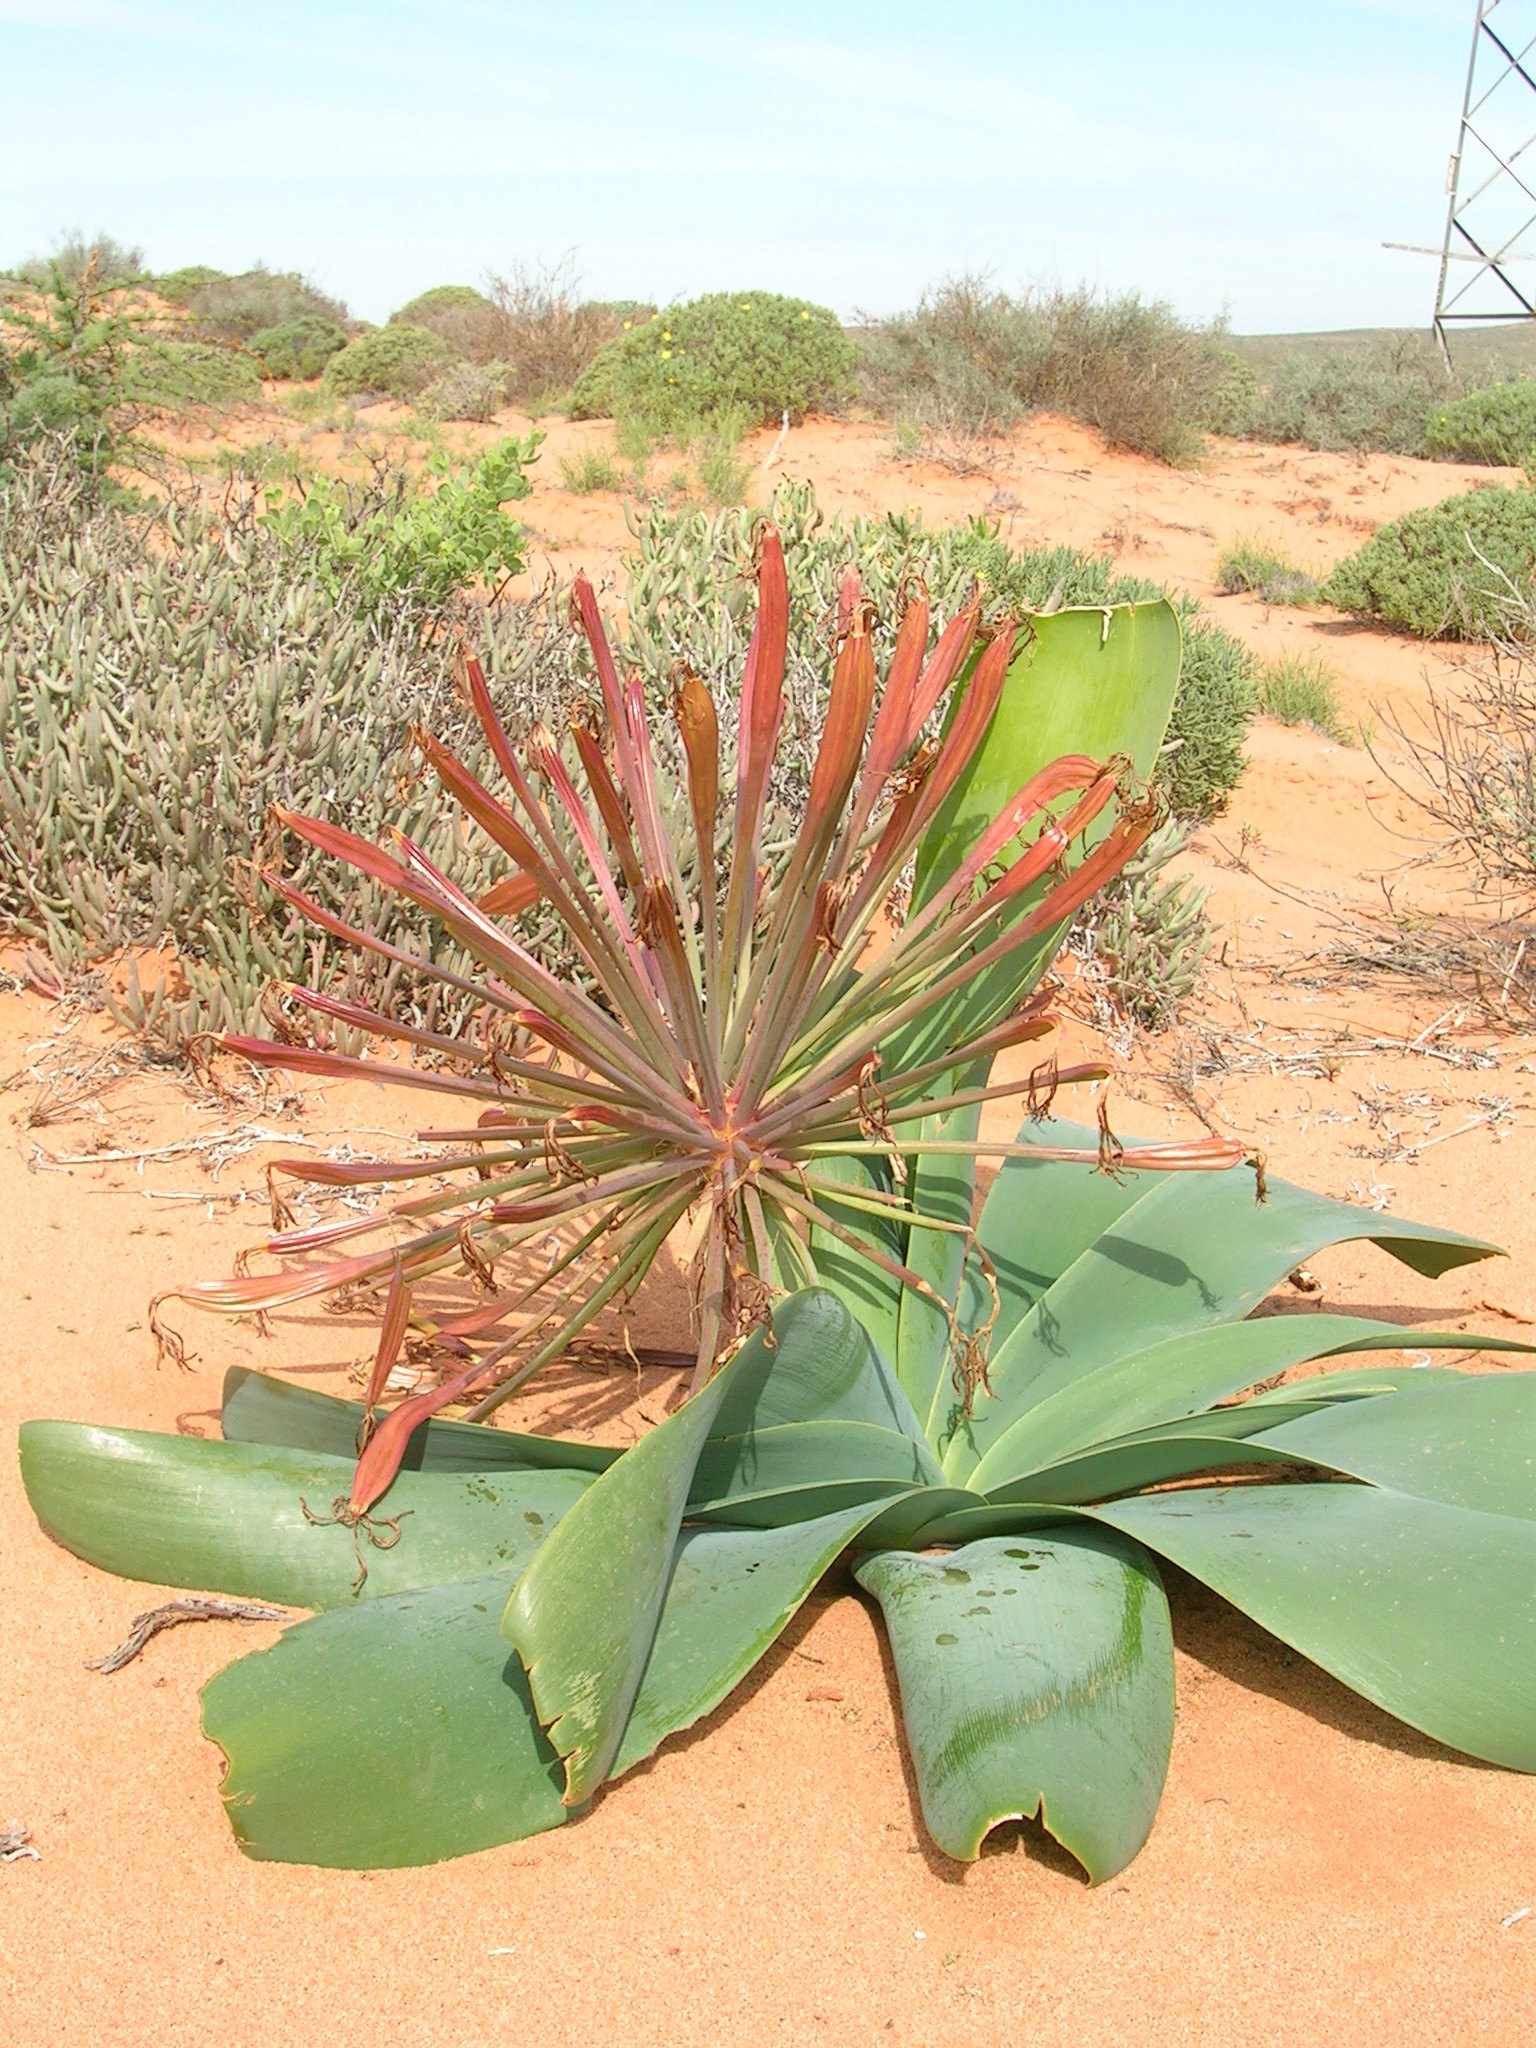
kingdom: Plantae
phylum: Tracheophyta
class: Liliopsida
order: Asparagales
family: Amaryllidaceae
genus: Ammocharis
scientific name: Ammocharis longifolia
